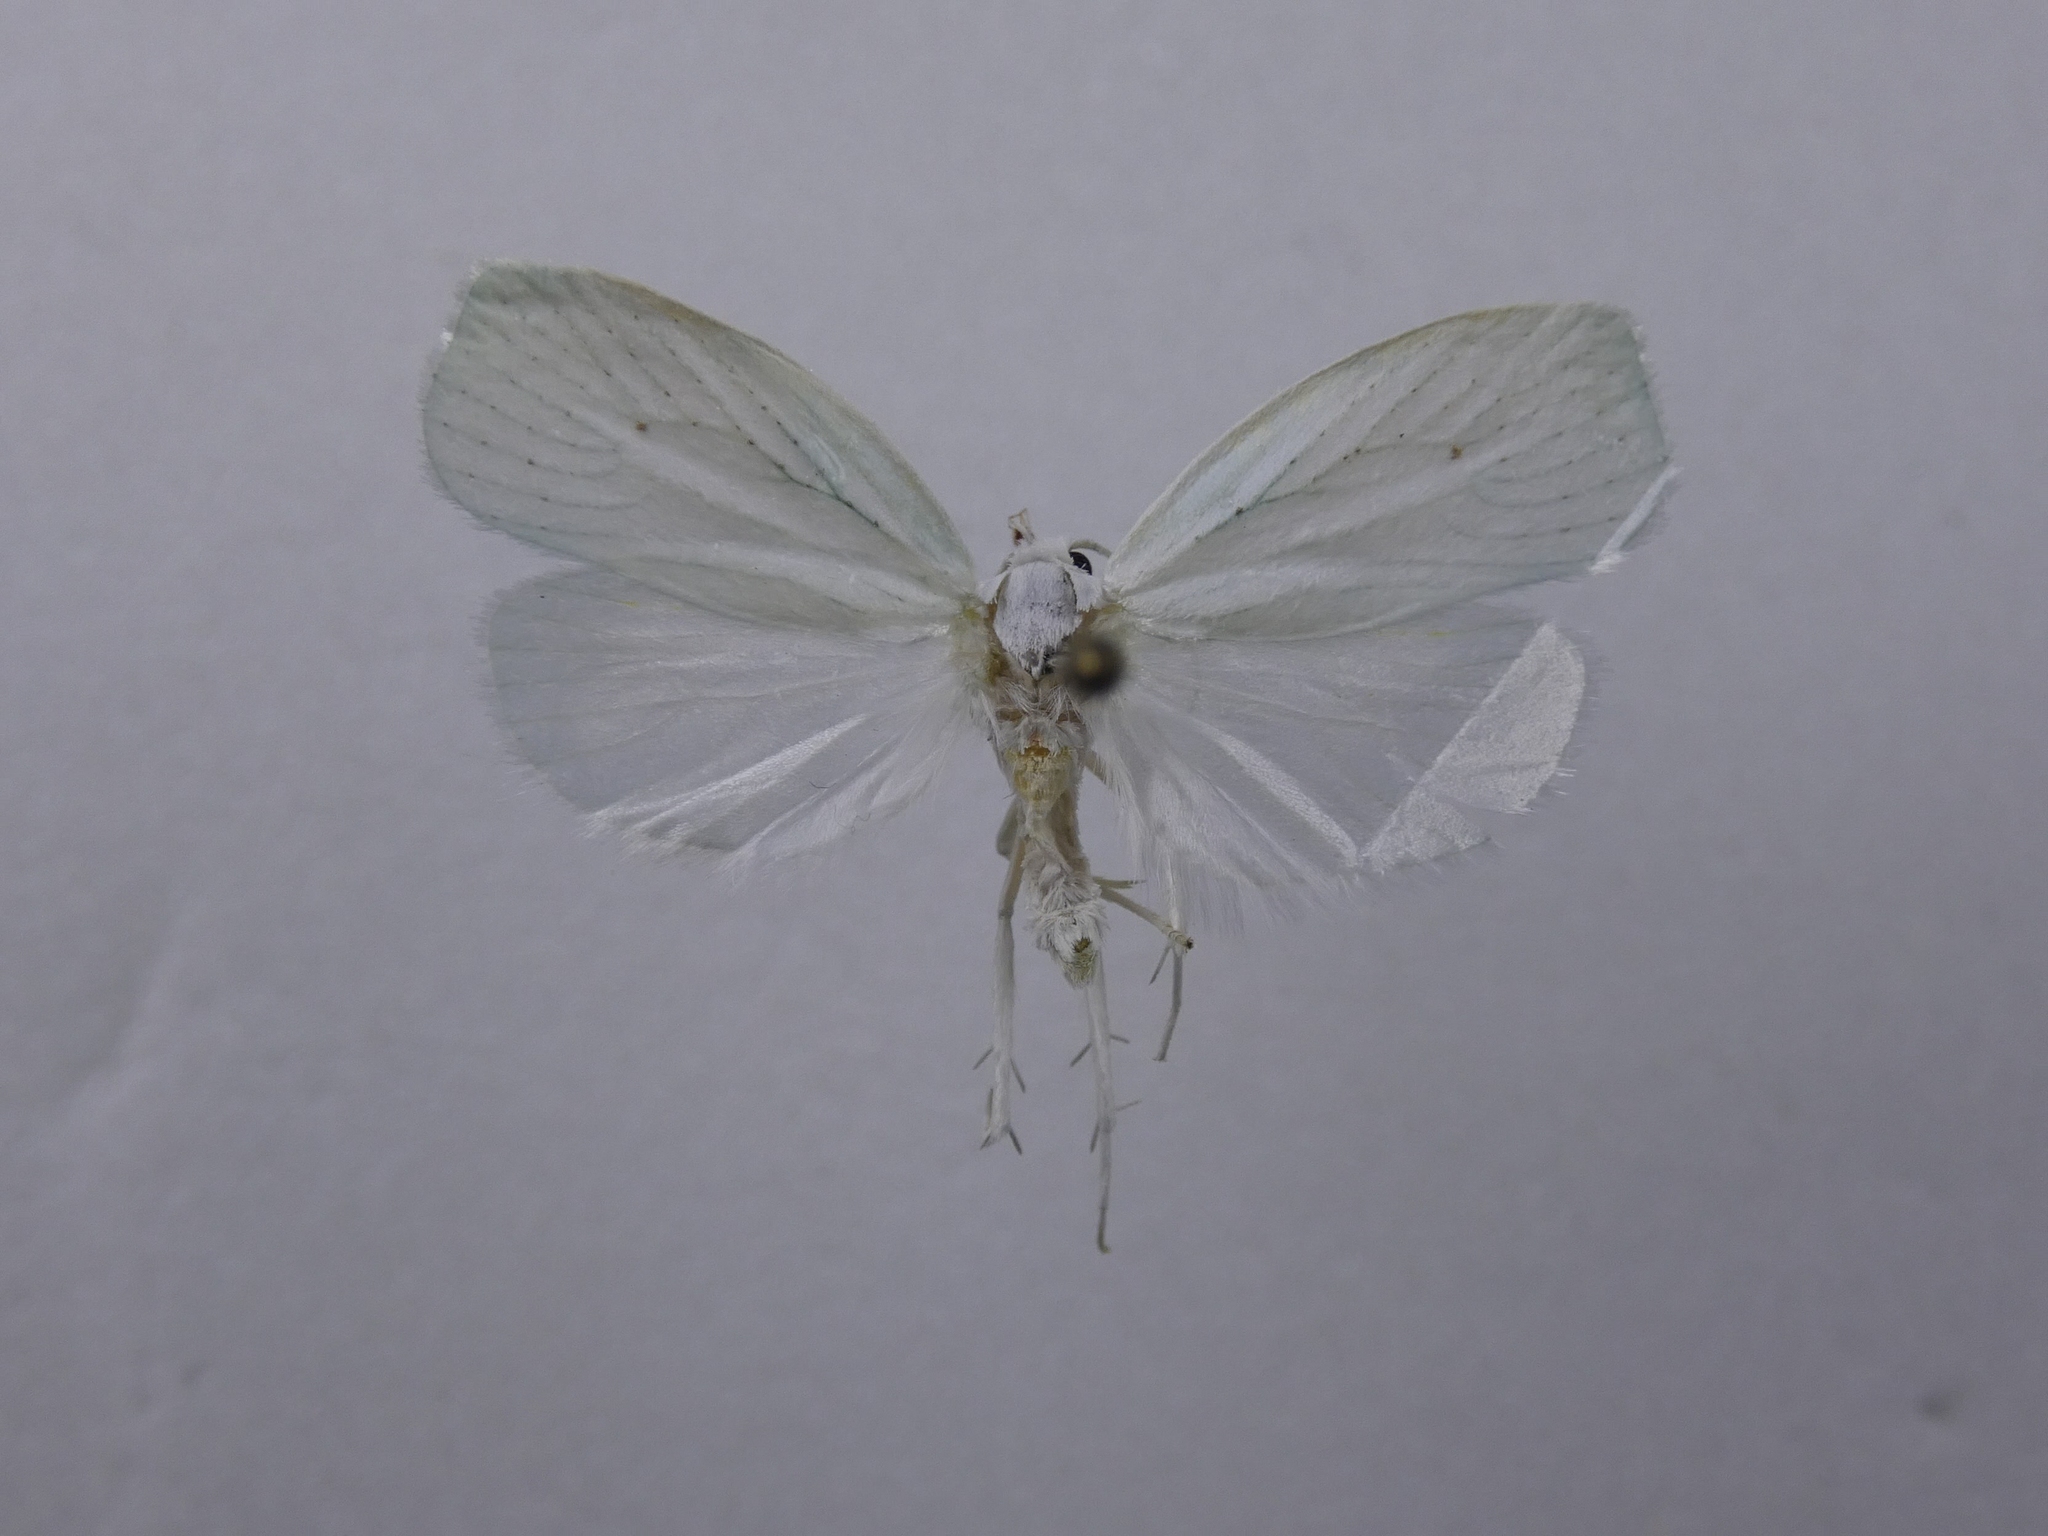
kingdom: Animalia
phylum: Arthropoda
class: Insecta
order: Lepidoptera
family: Oecophoridae
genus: Nymphostola
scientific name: Nymphostola galactina
